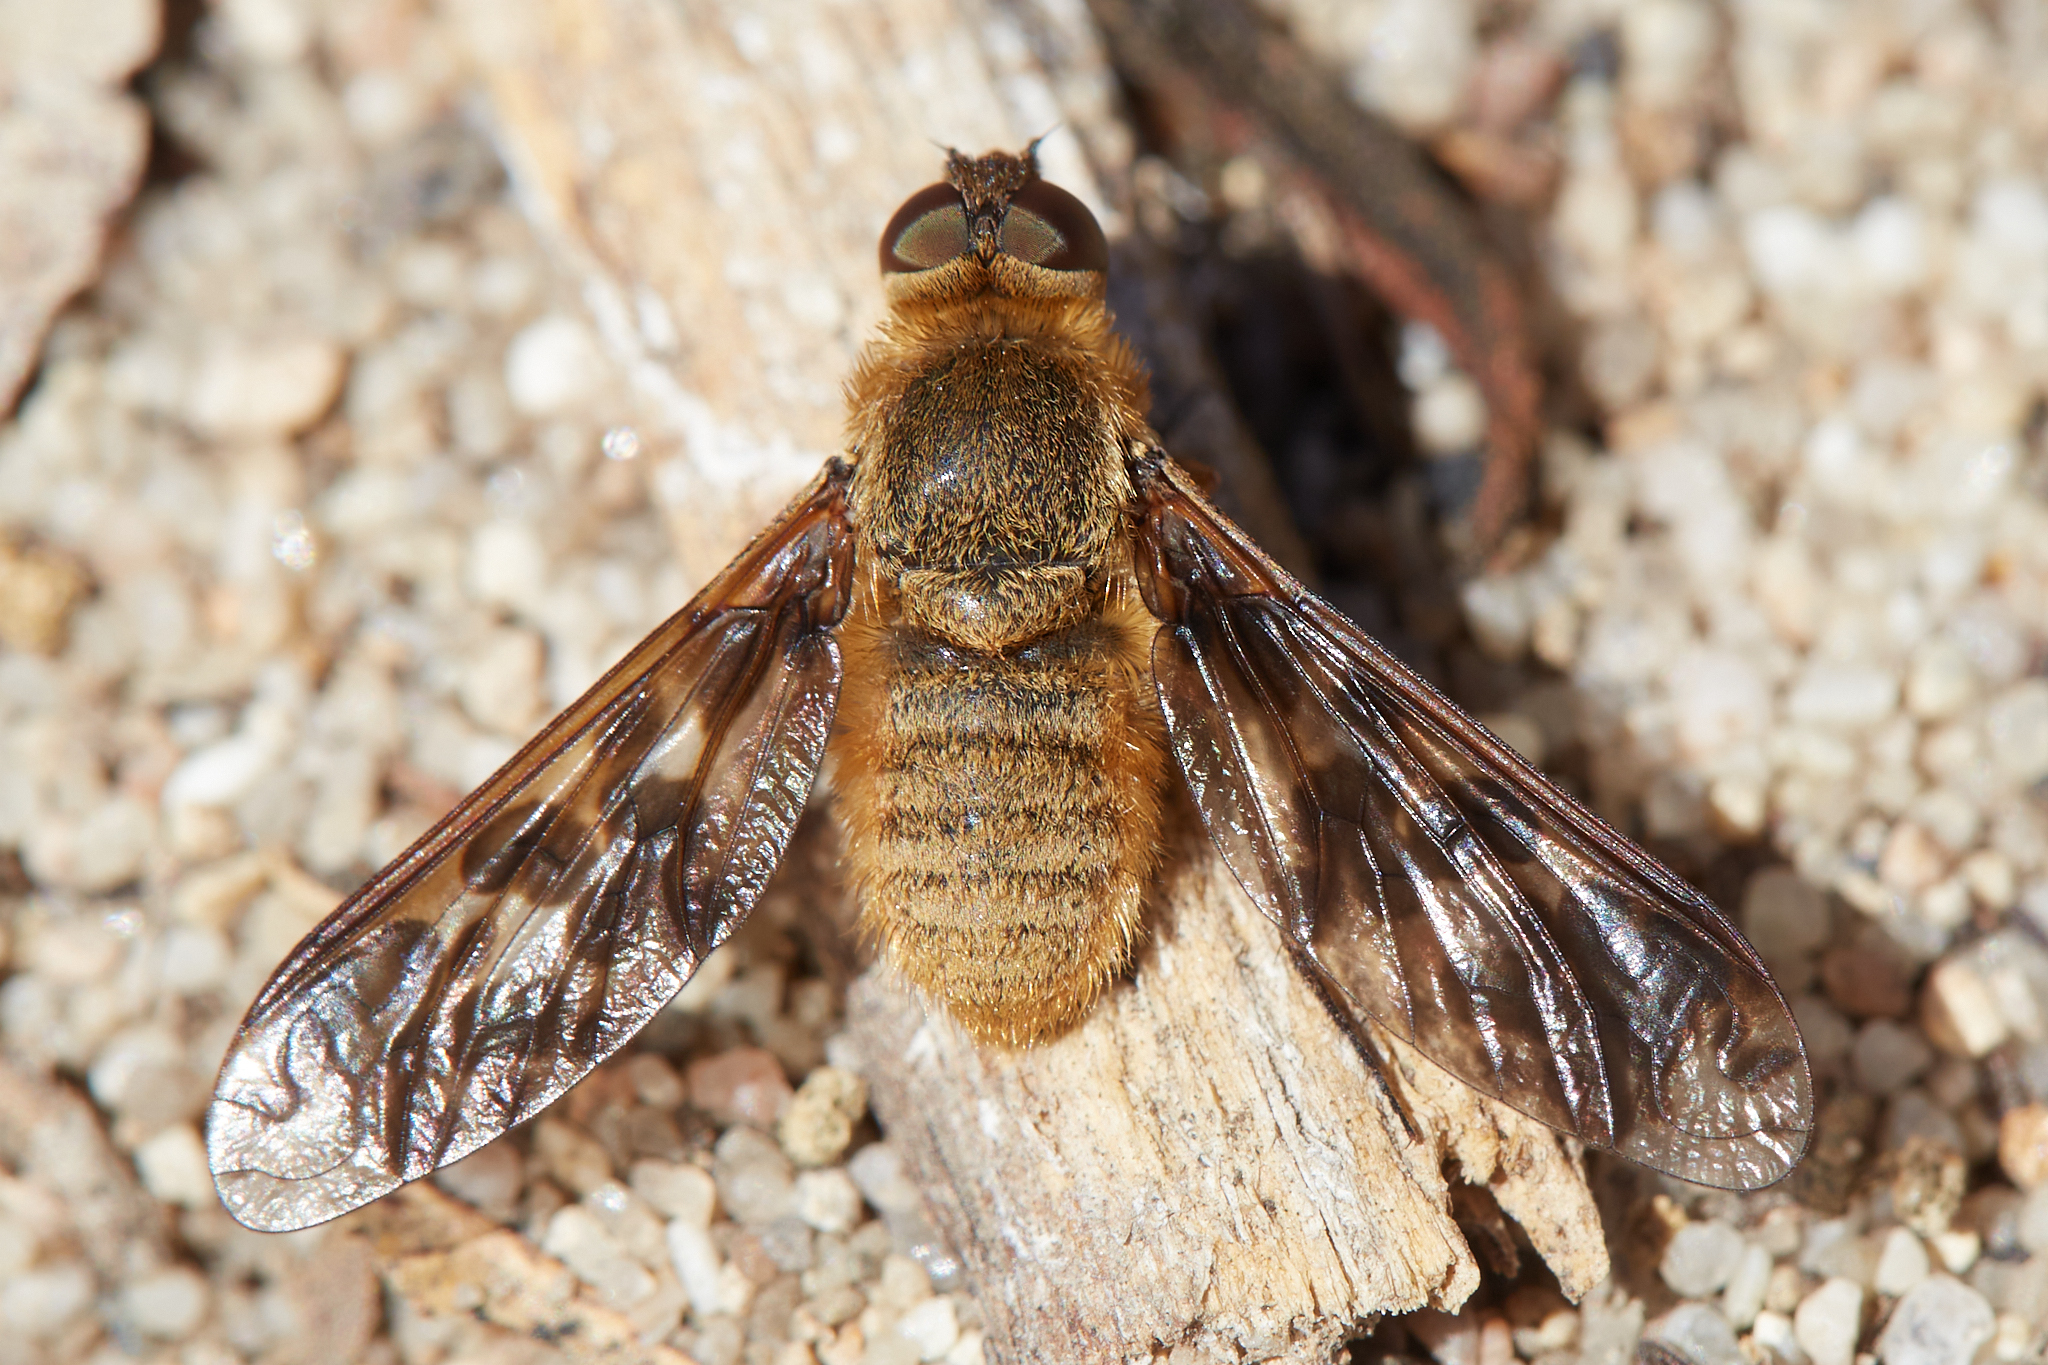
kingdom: Animalia
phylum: Arthropoda
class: Insecta
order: Diptera
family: Bombyliidae
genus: Dipalta
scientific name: Dipalta serpentina
